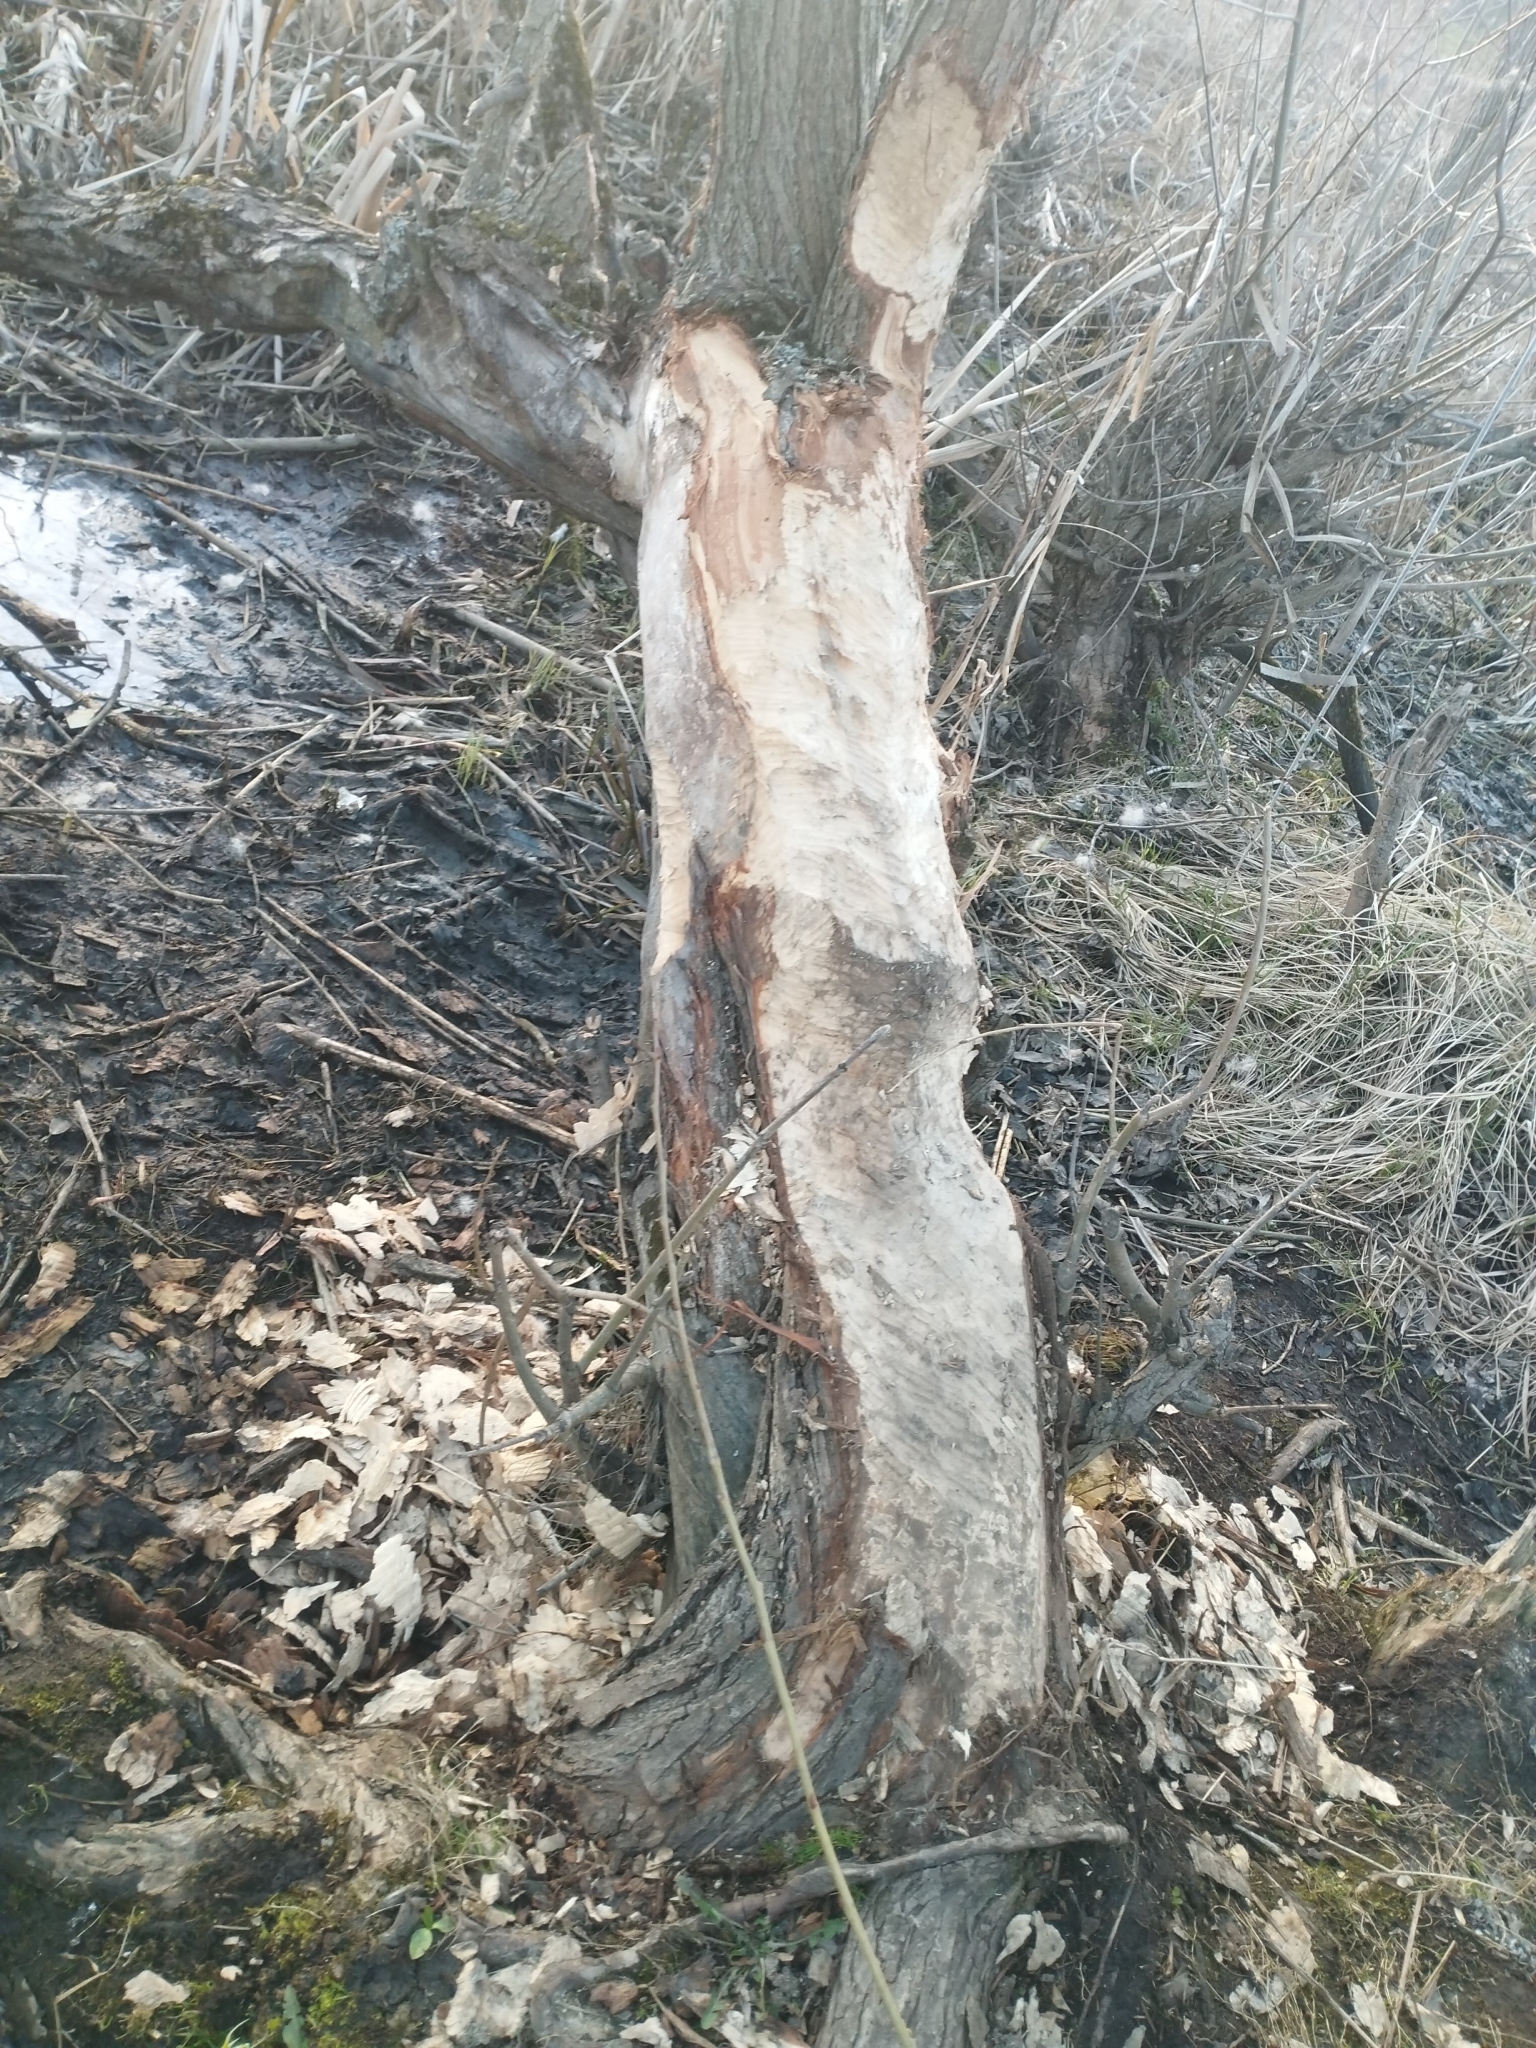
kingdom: Animalia
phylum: Chordata
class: Mammalia
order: Rodentia
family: Castoridae
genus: Castor
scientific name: Castor fiber
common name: Eurasian beaver
